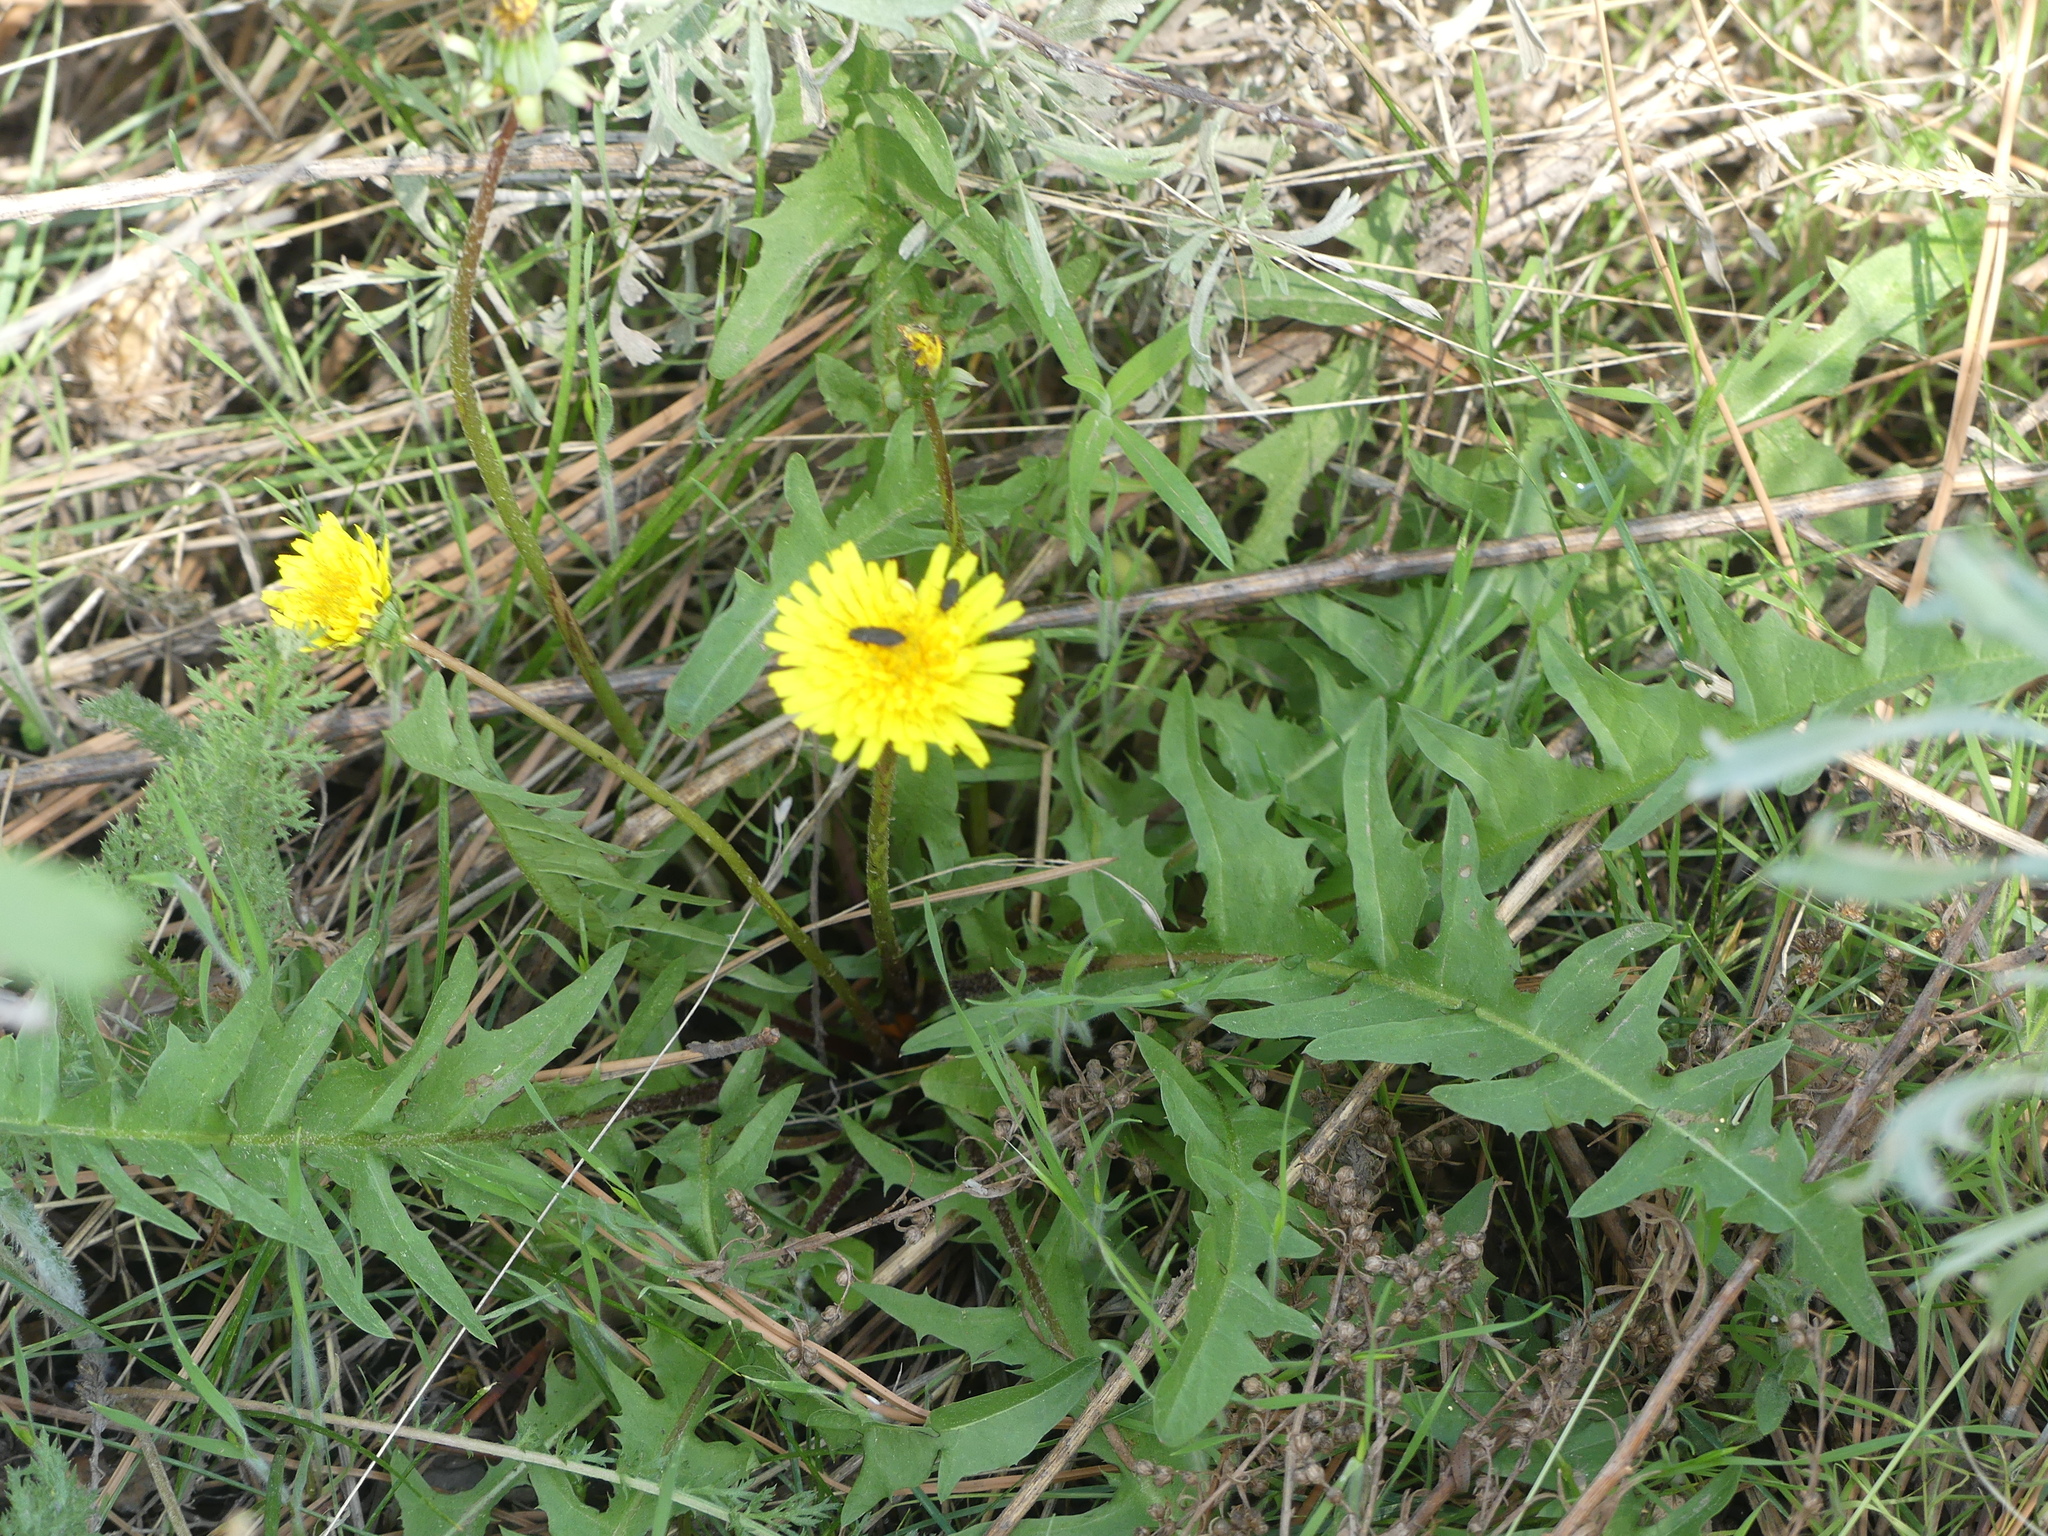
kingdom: Plantae
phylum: Tracheophyta
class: Magnoliopsida
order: Asterales
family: Asteraceae
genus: Taraxacum
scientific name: Taraxacum
